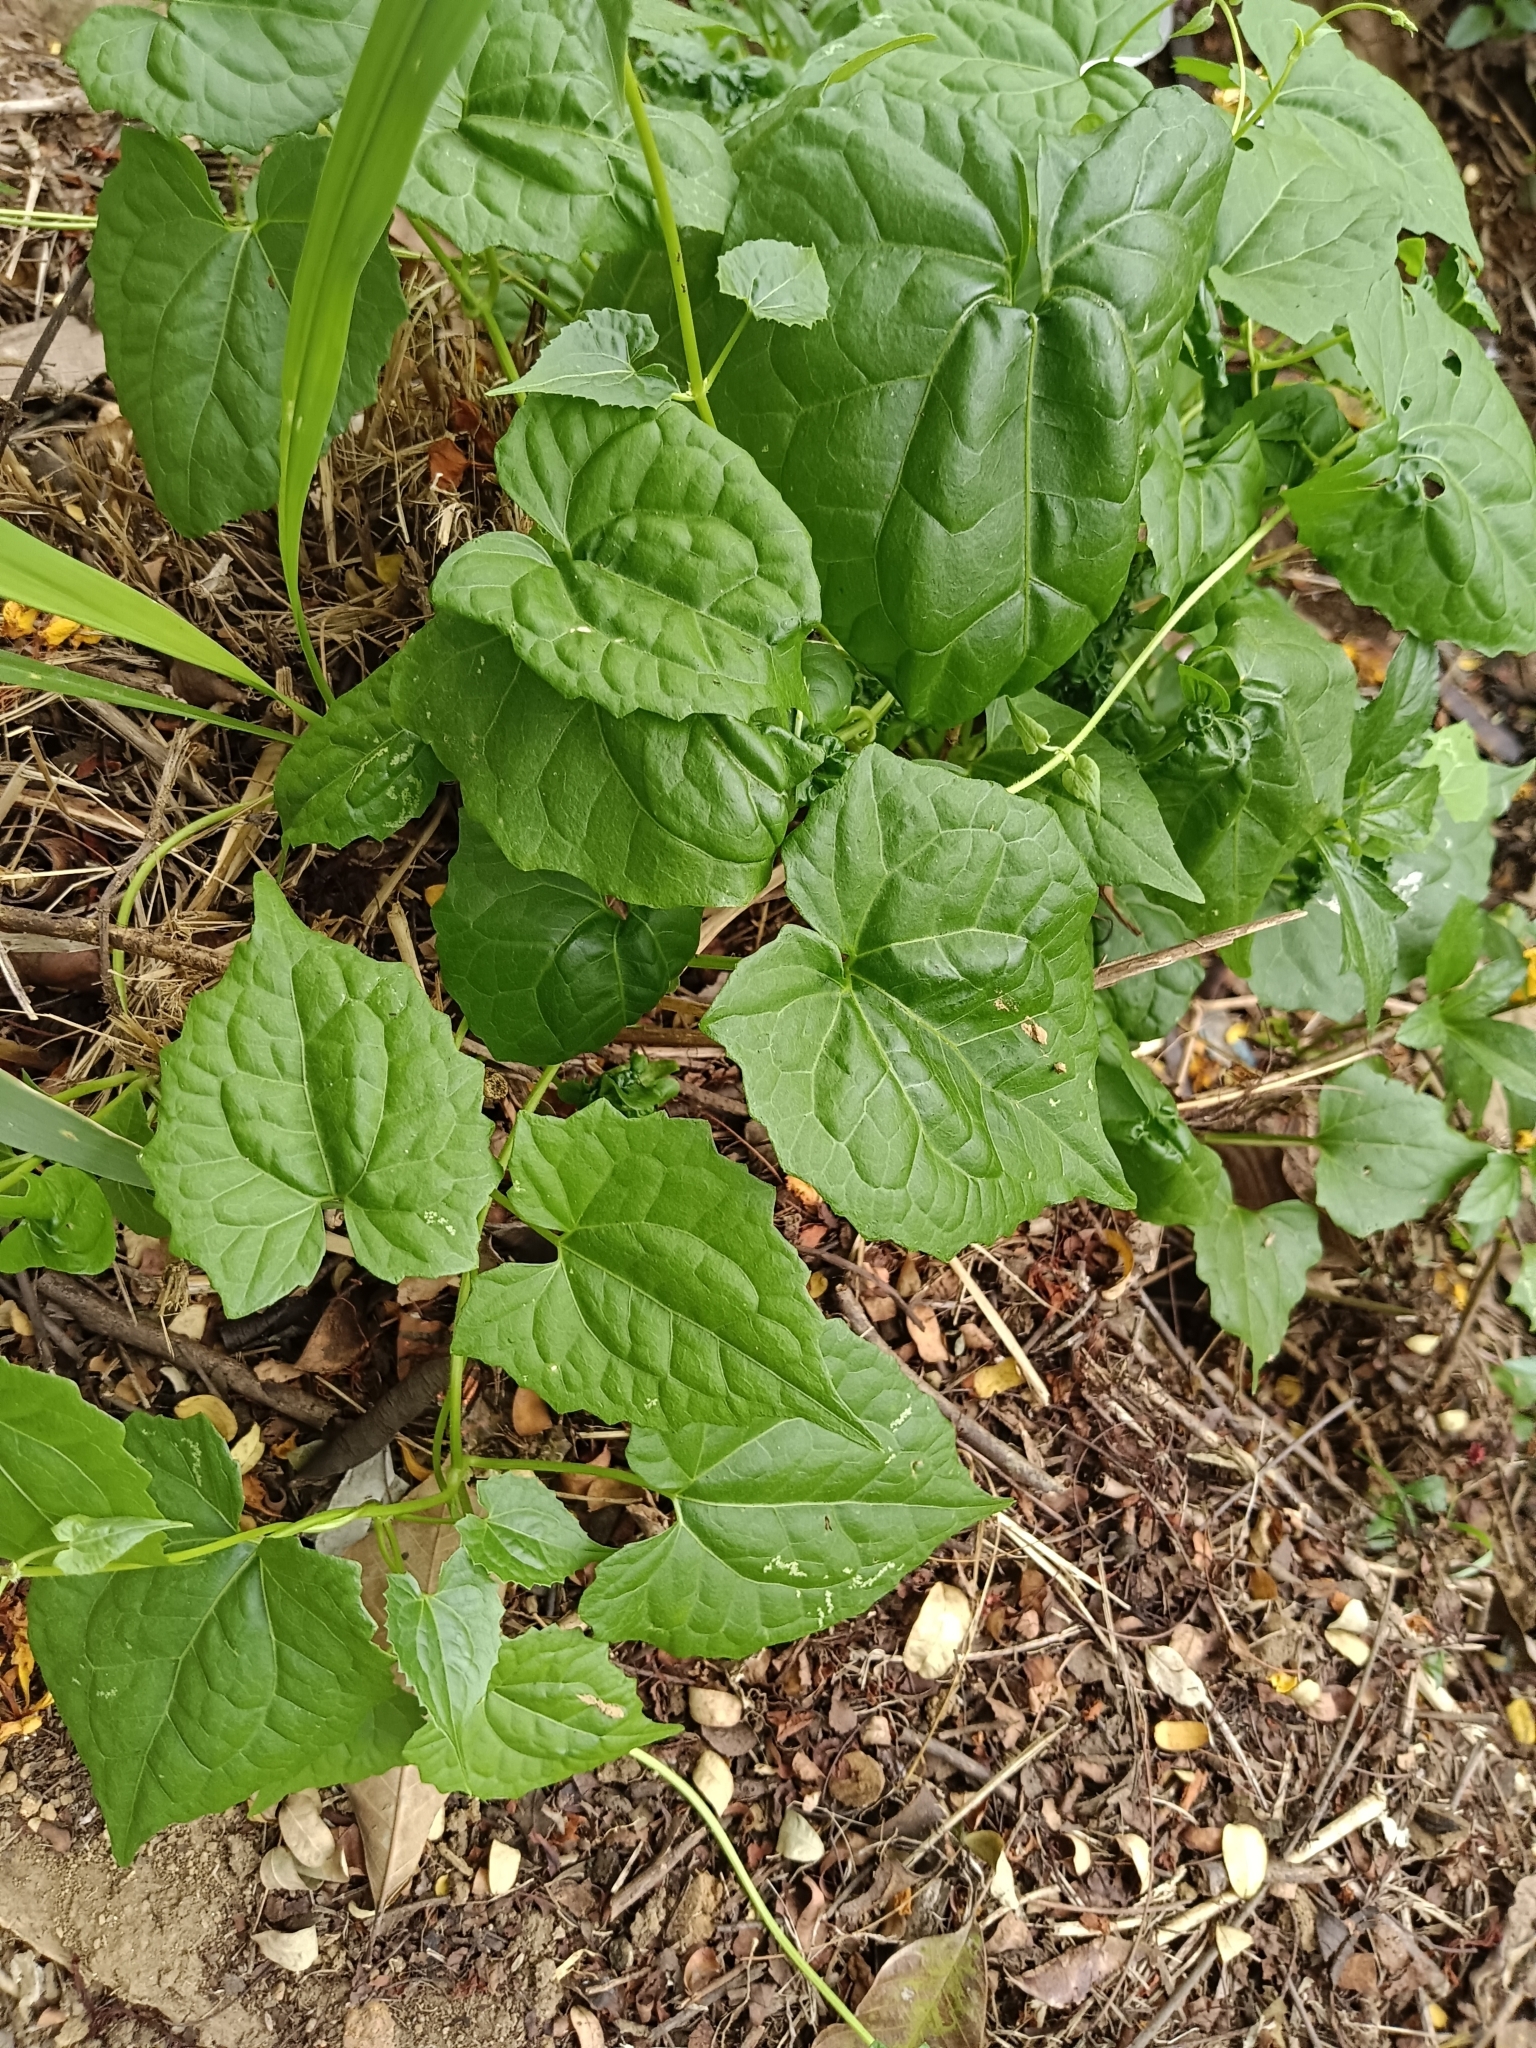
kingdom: Plantae
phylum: Tracheophyta
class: Magnoliopsida
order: Asterales
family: Asteraceae
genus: Mikania
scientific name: Mikania micrantha
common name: Mile-a-minute
